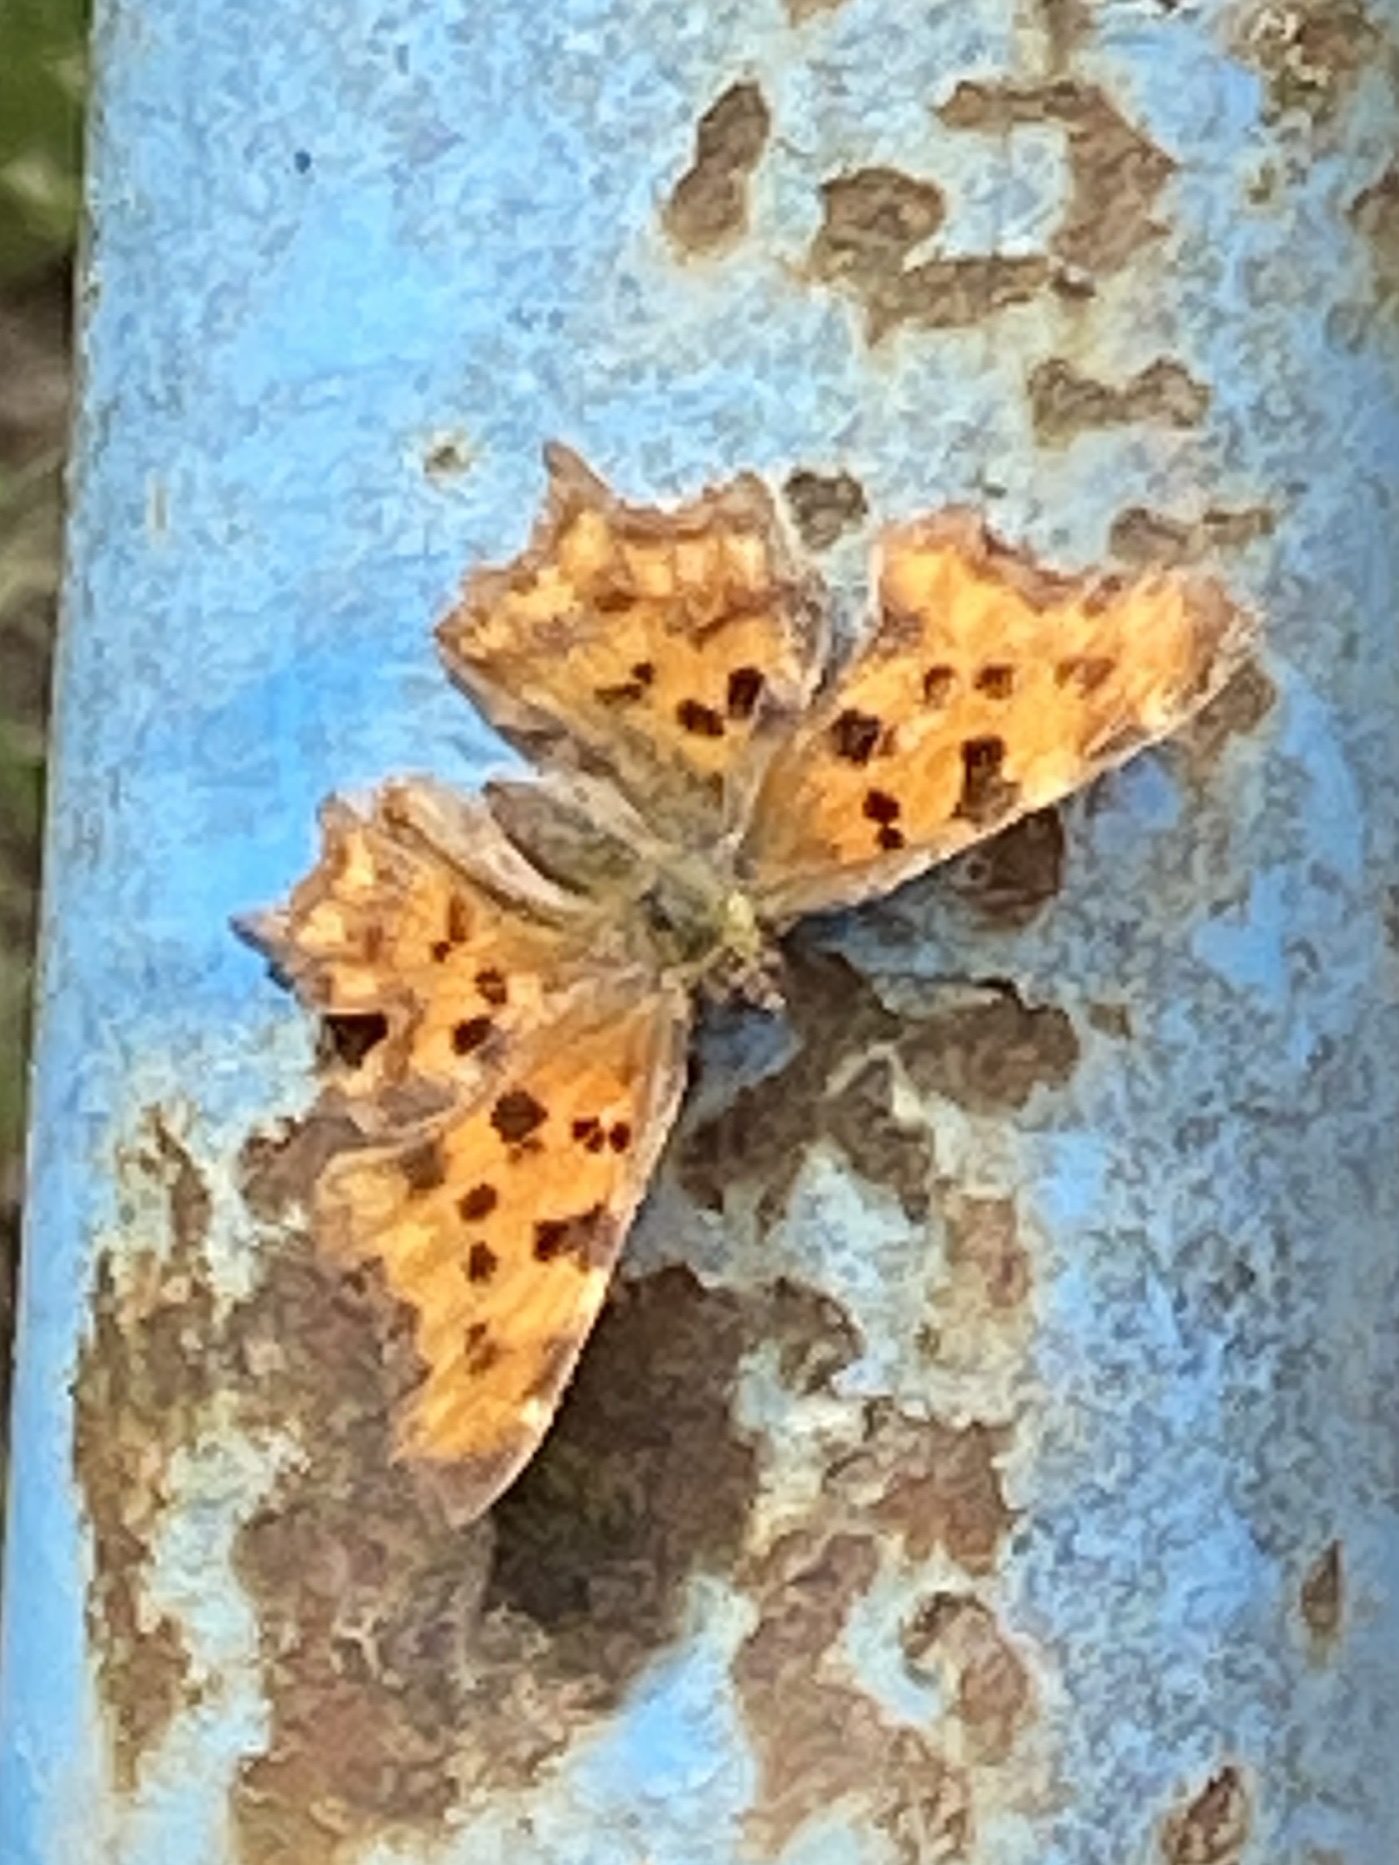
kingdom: Animalia
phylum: Arthropoda
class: Insecta
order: Lepidoptera
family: Nymphalidae
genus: Polygonia
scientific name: Polygonia c-album
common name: Comma
